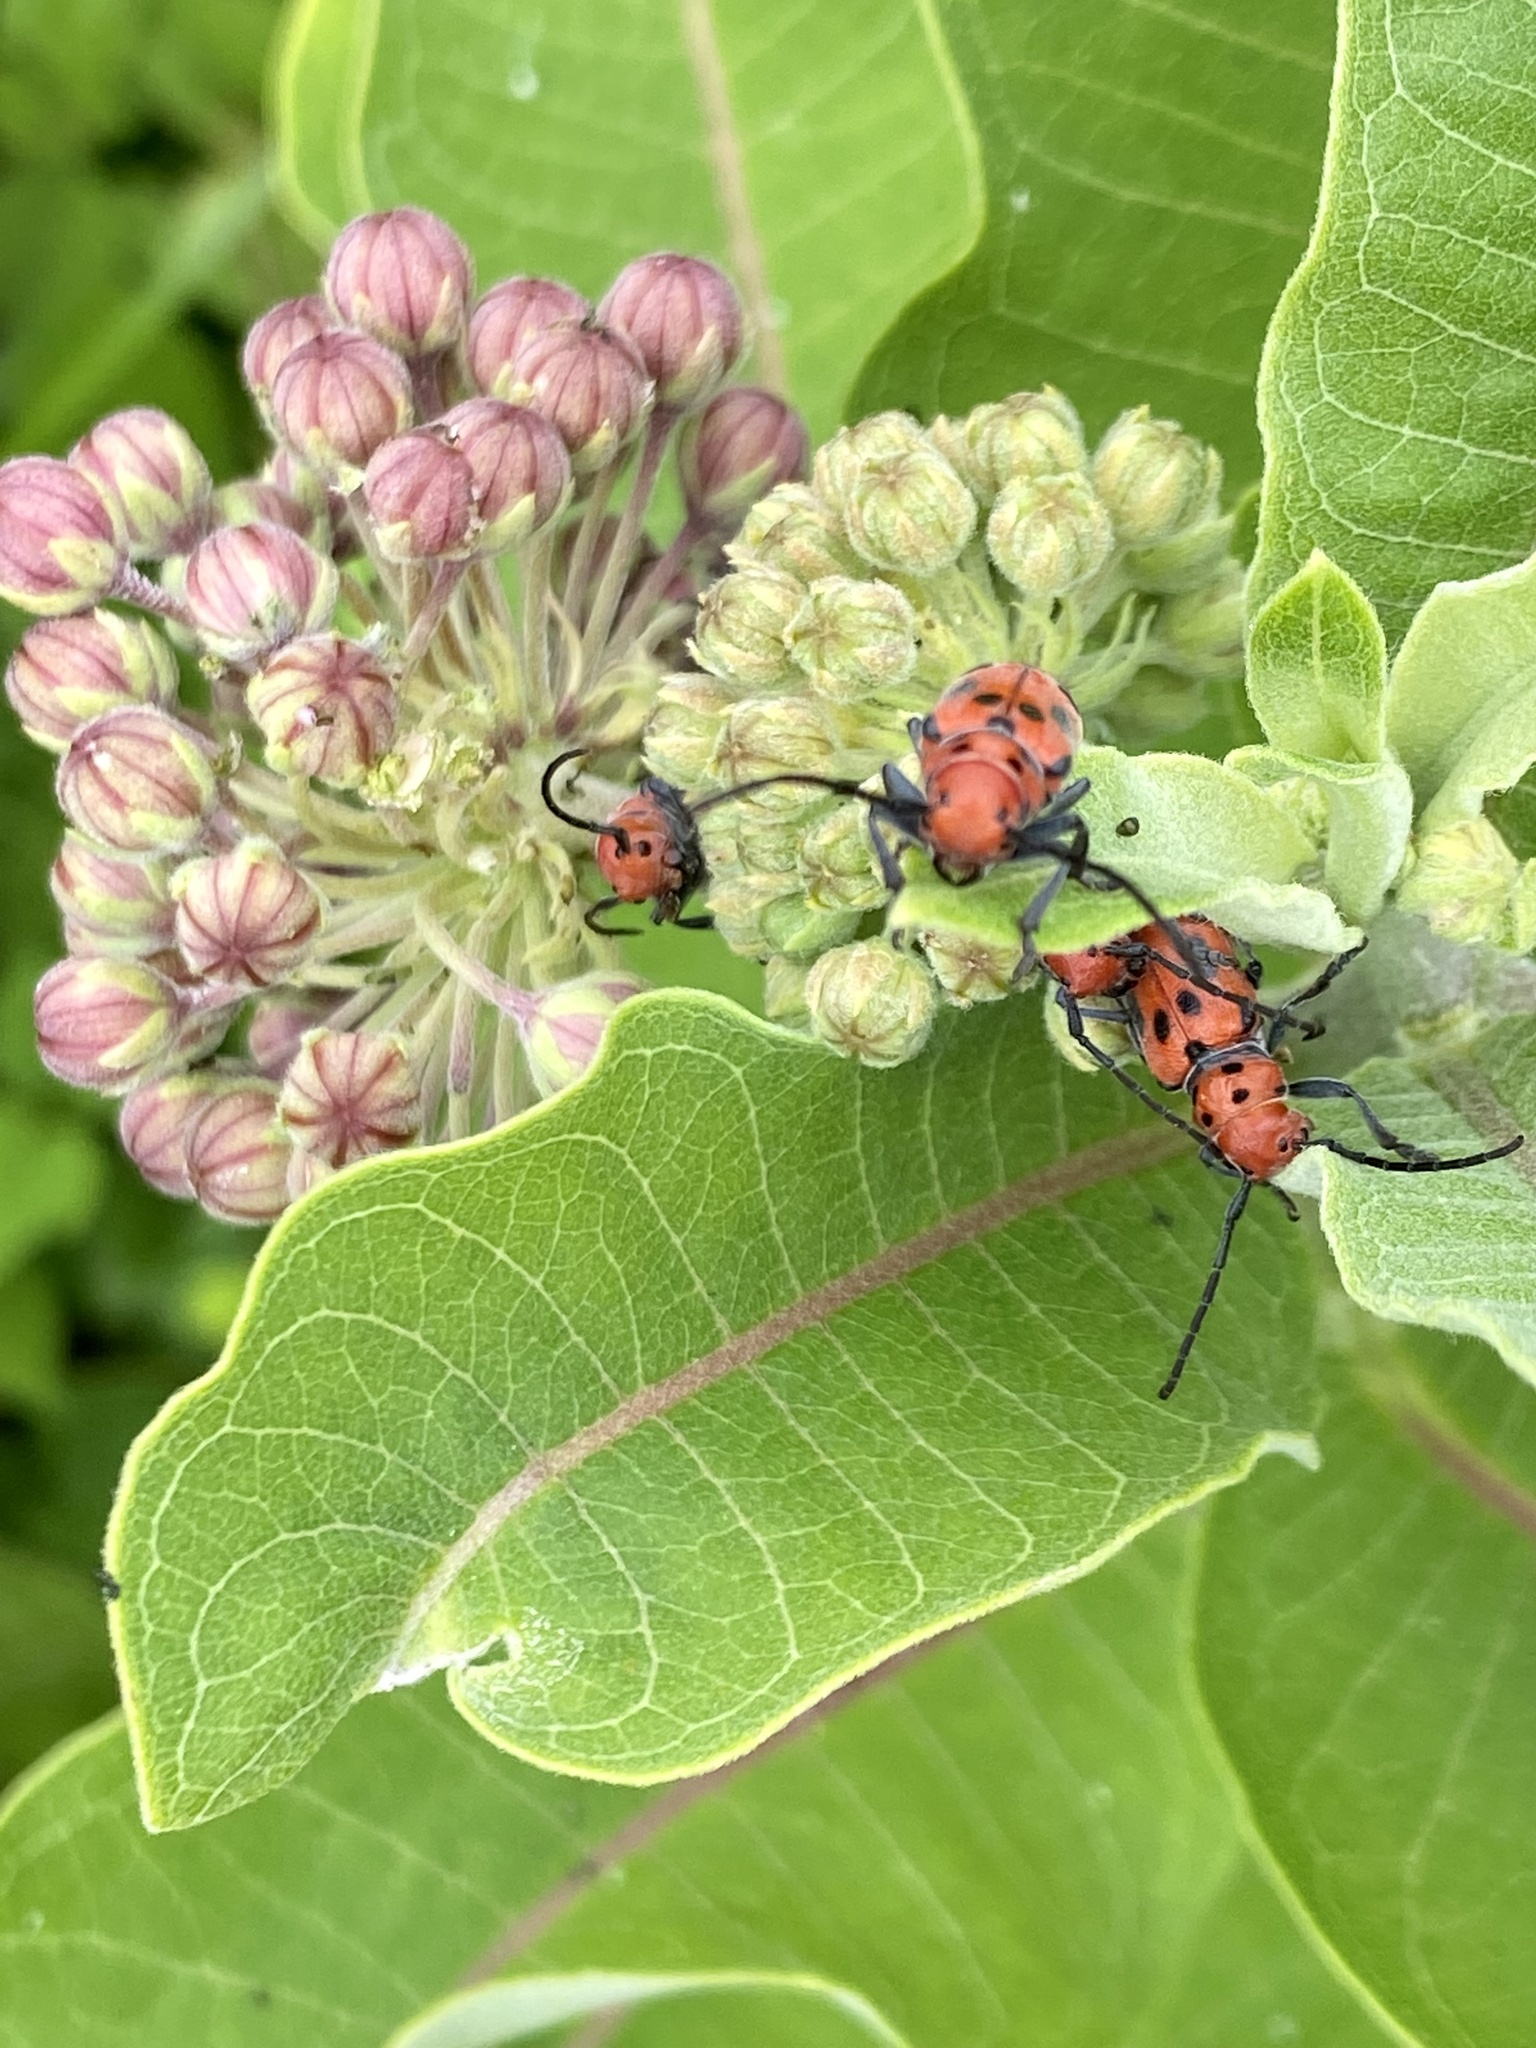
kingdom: Animalia
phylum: Arthropoda
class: Insecta
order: Coleoptera
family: Cerambycidae
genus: Tetraopes
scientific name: Tetraopes tetrophthalmus
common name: Red milkweed beetle
